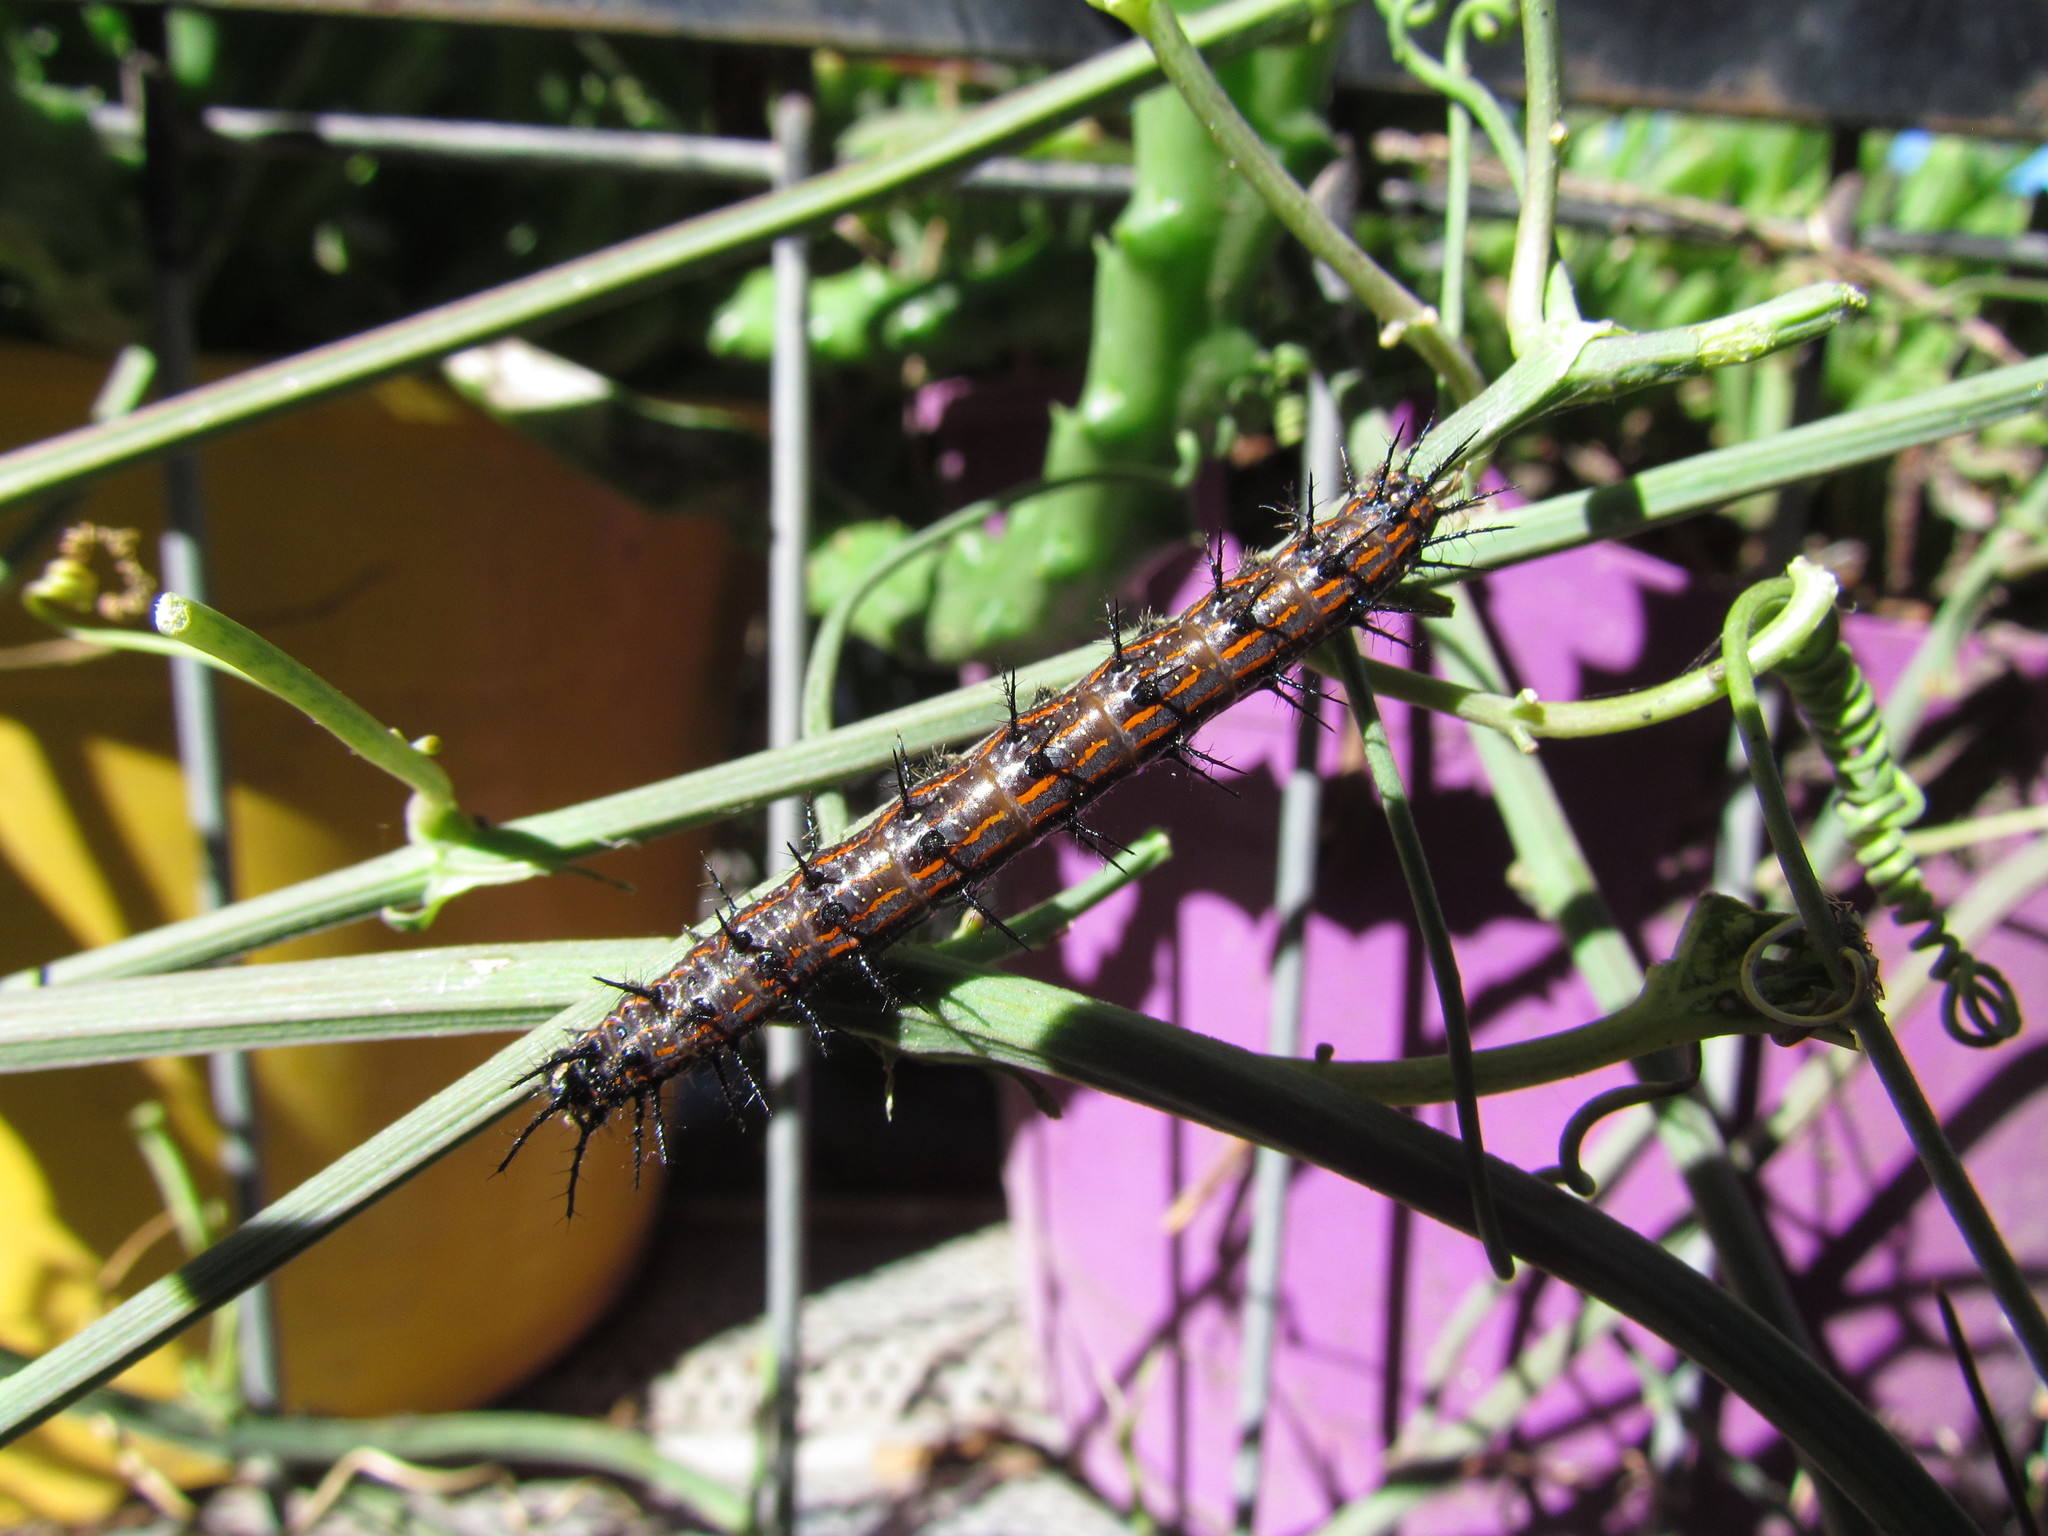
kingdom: Animalia
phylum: Arthropoda
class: Insecta
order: Lepidoptera
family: Nymphalidae
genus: Dione
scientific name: Dione vanillae
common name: Gulf fritillary
